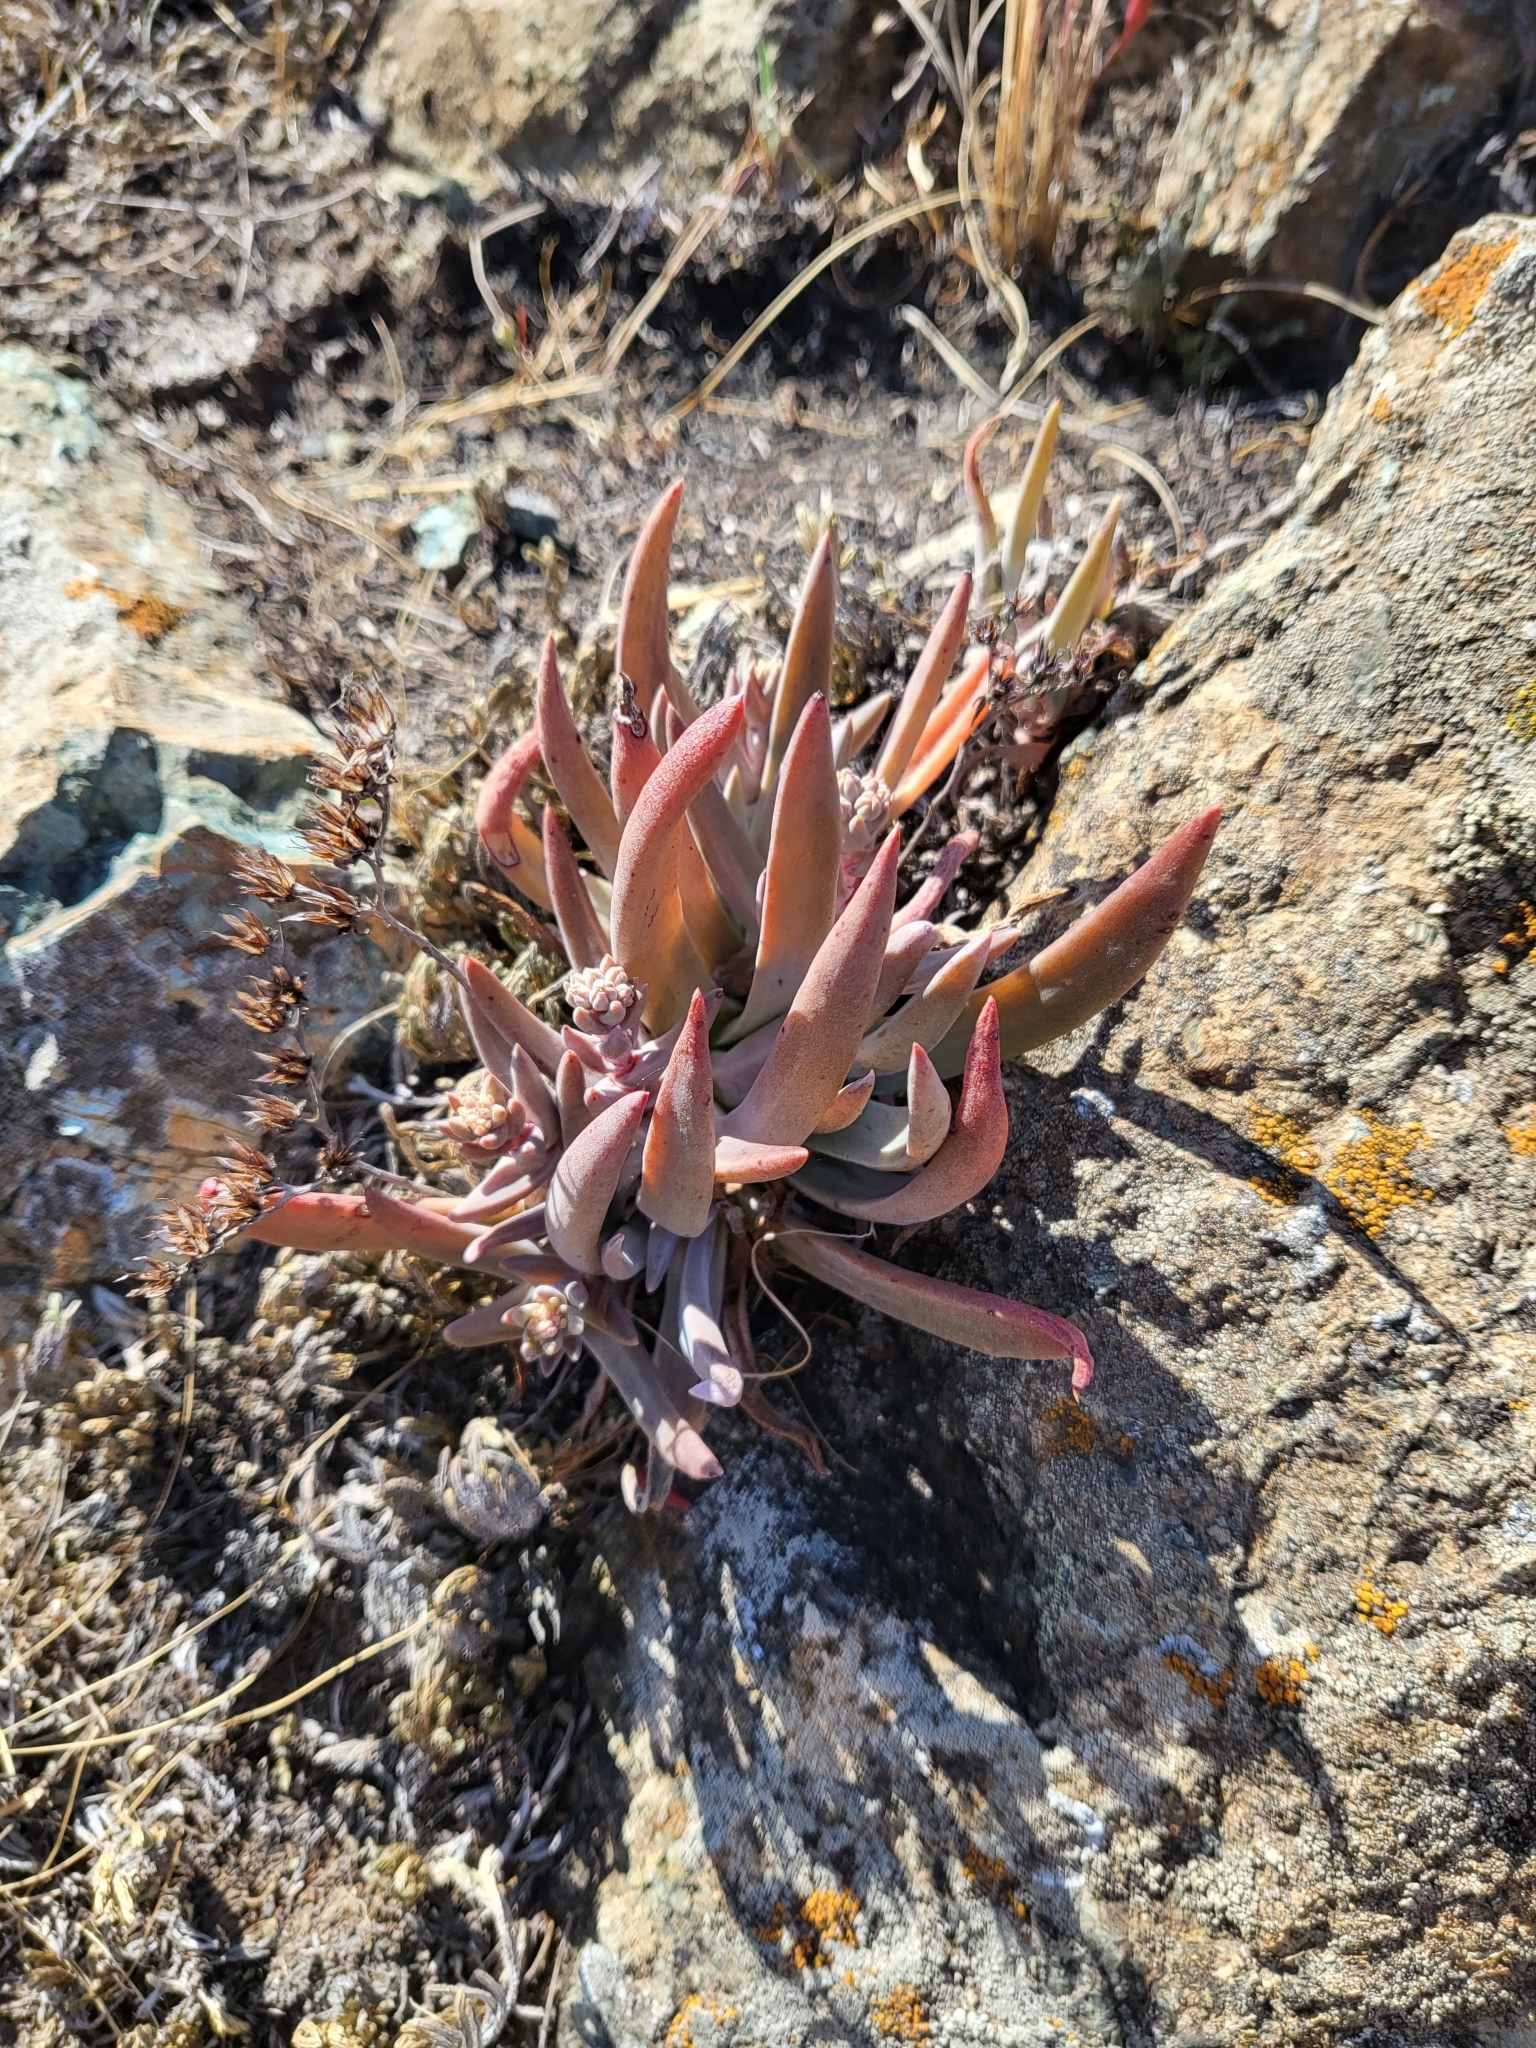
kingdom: Plantae
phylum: Tracheophyta
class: Magnoliopsida
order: Saxifragales
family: Crassulaceae
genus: Dudleya
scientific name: Dudleya abramsii
